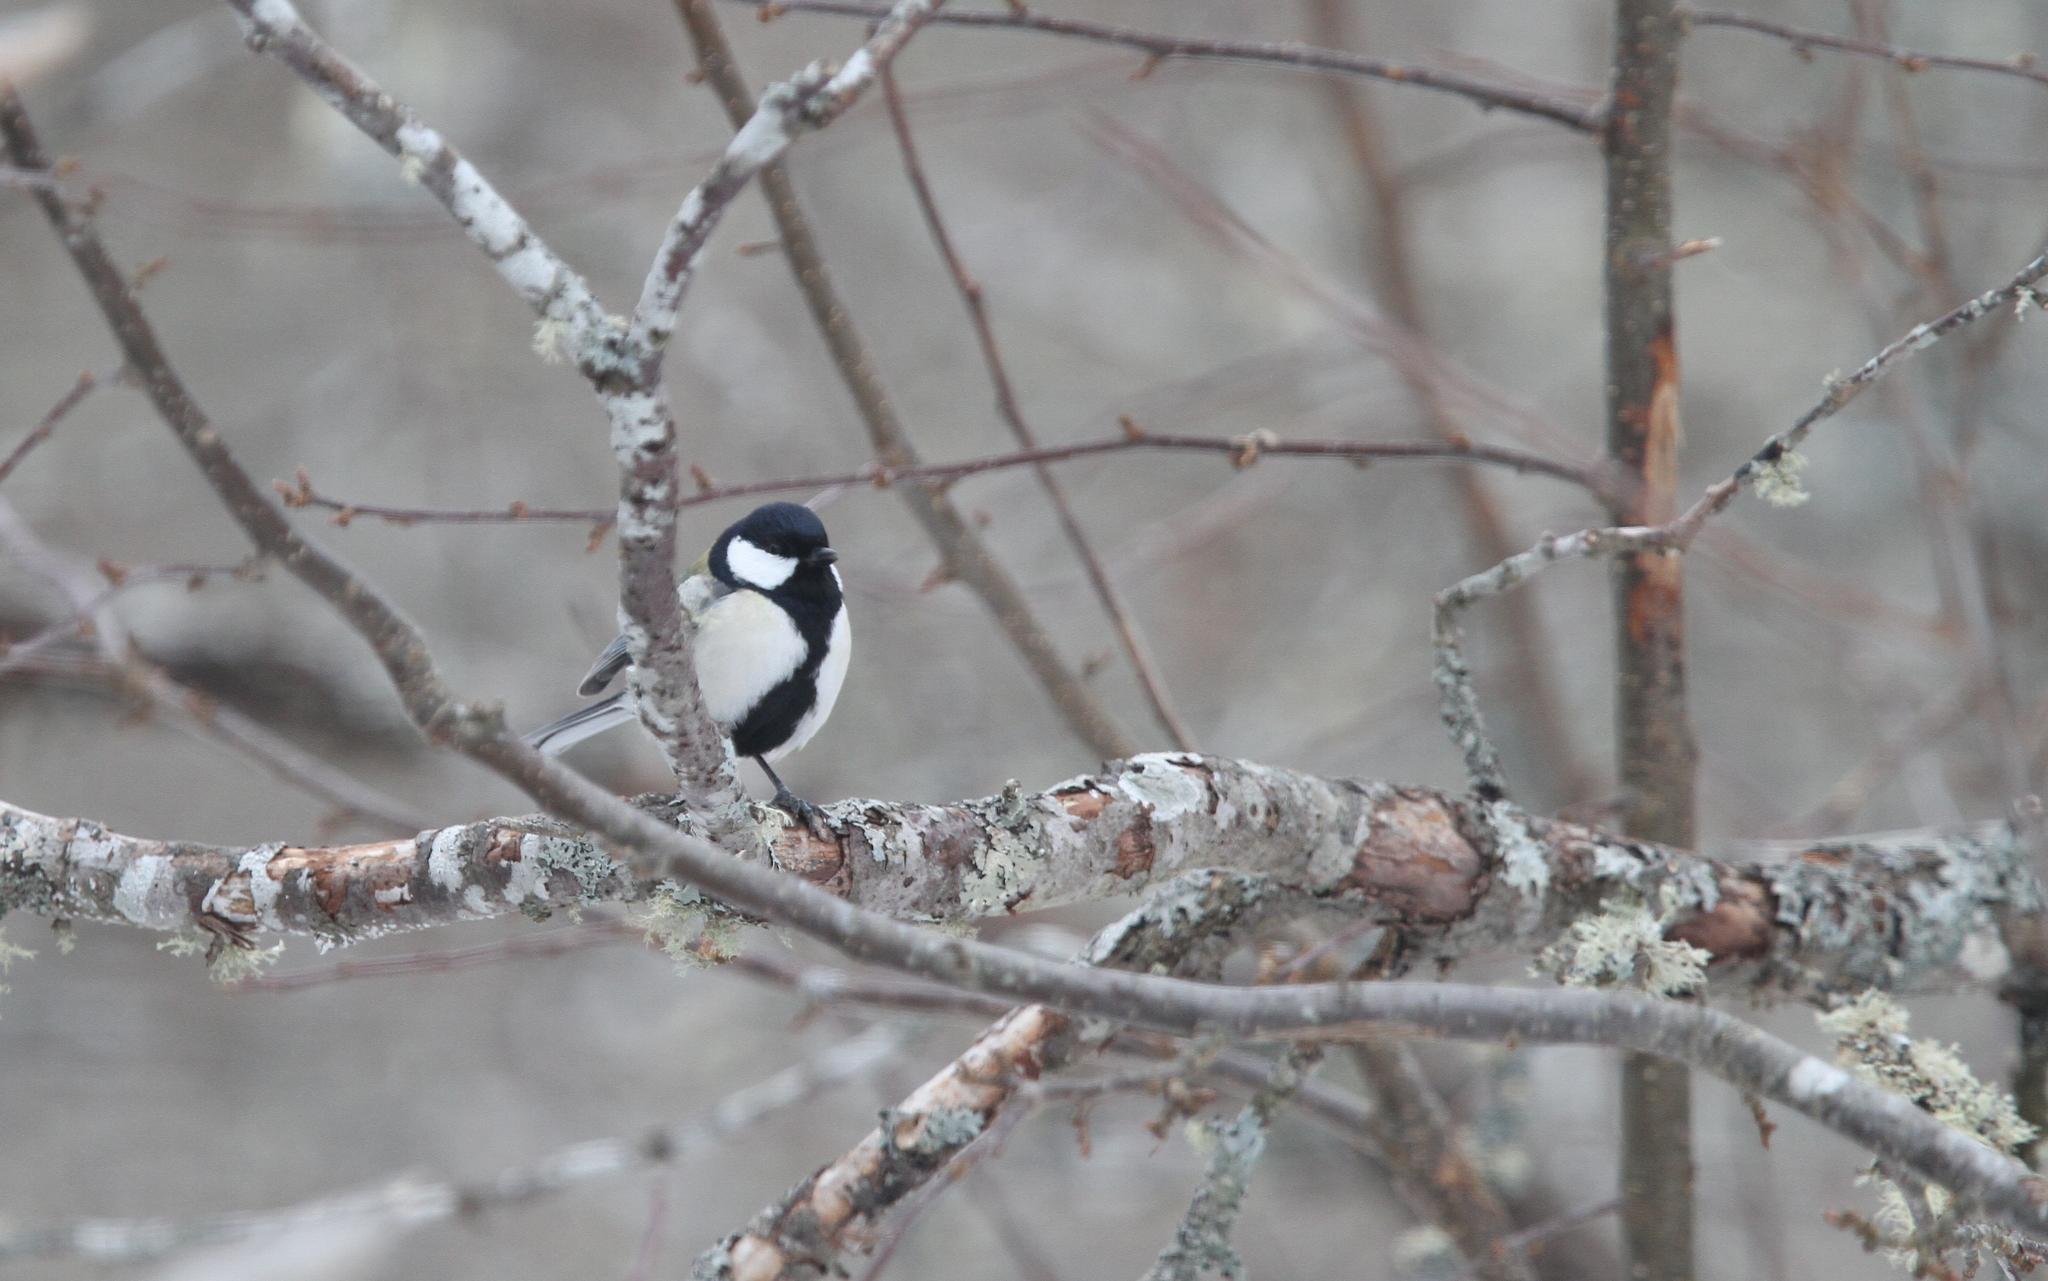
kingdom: Animalia
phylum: Chordata
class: Aves
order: Passeriformes
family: Paridae
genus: Parus
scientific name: Parus minor
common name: Japanese tit
